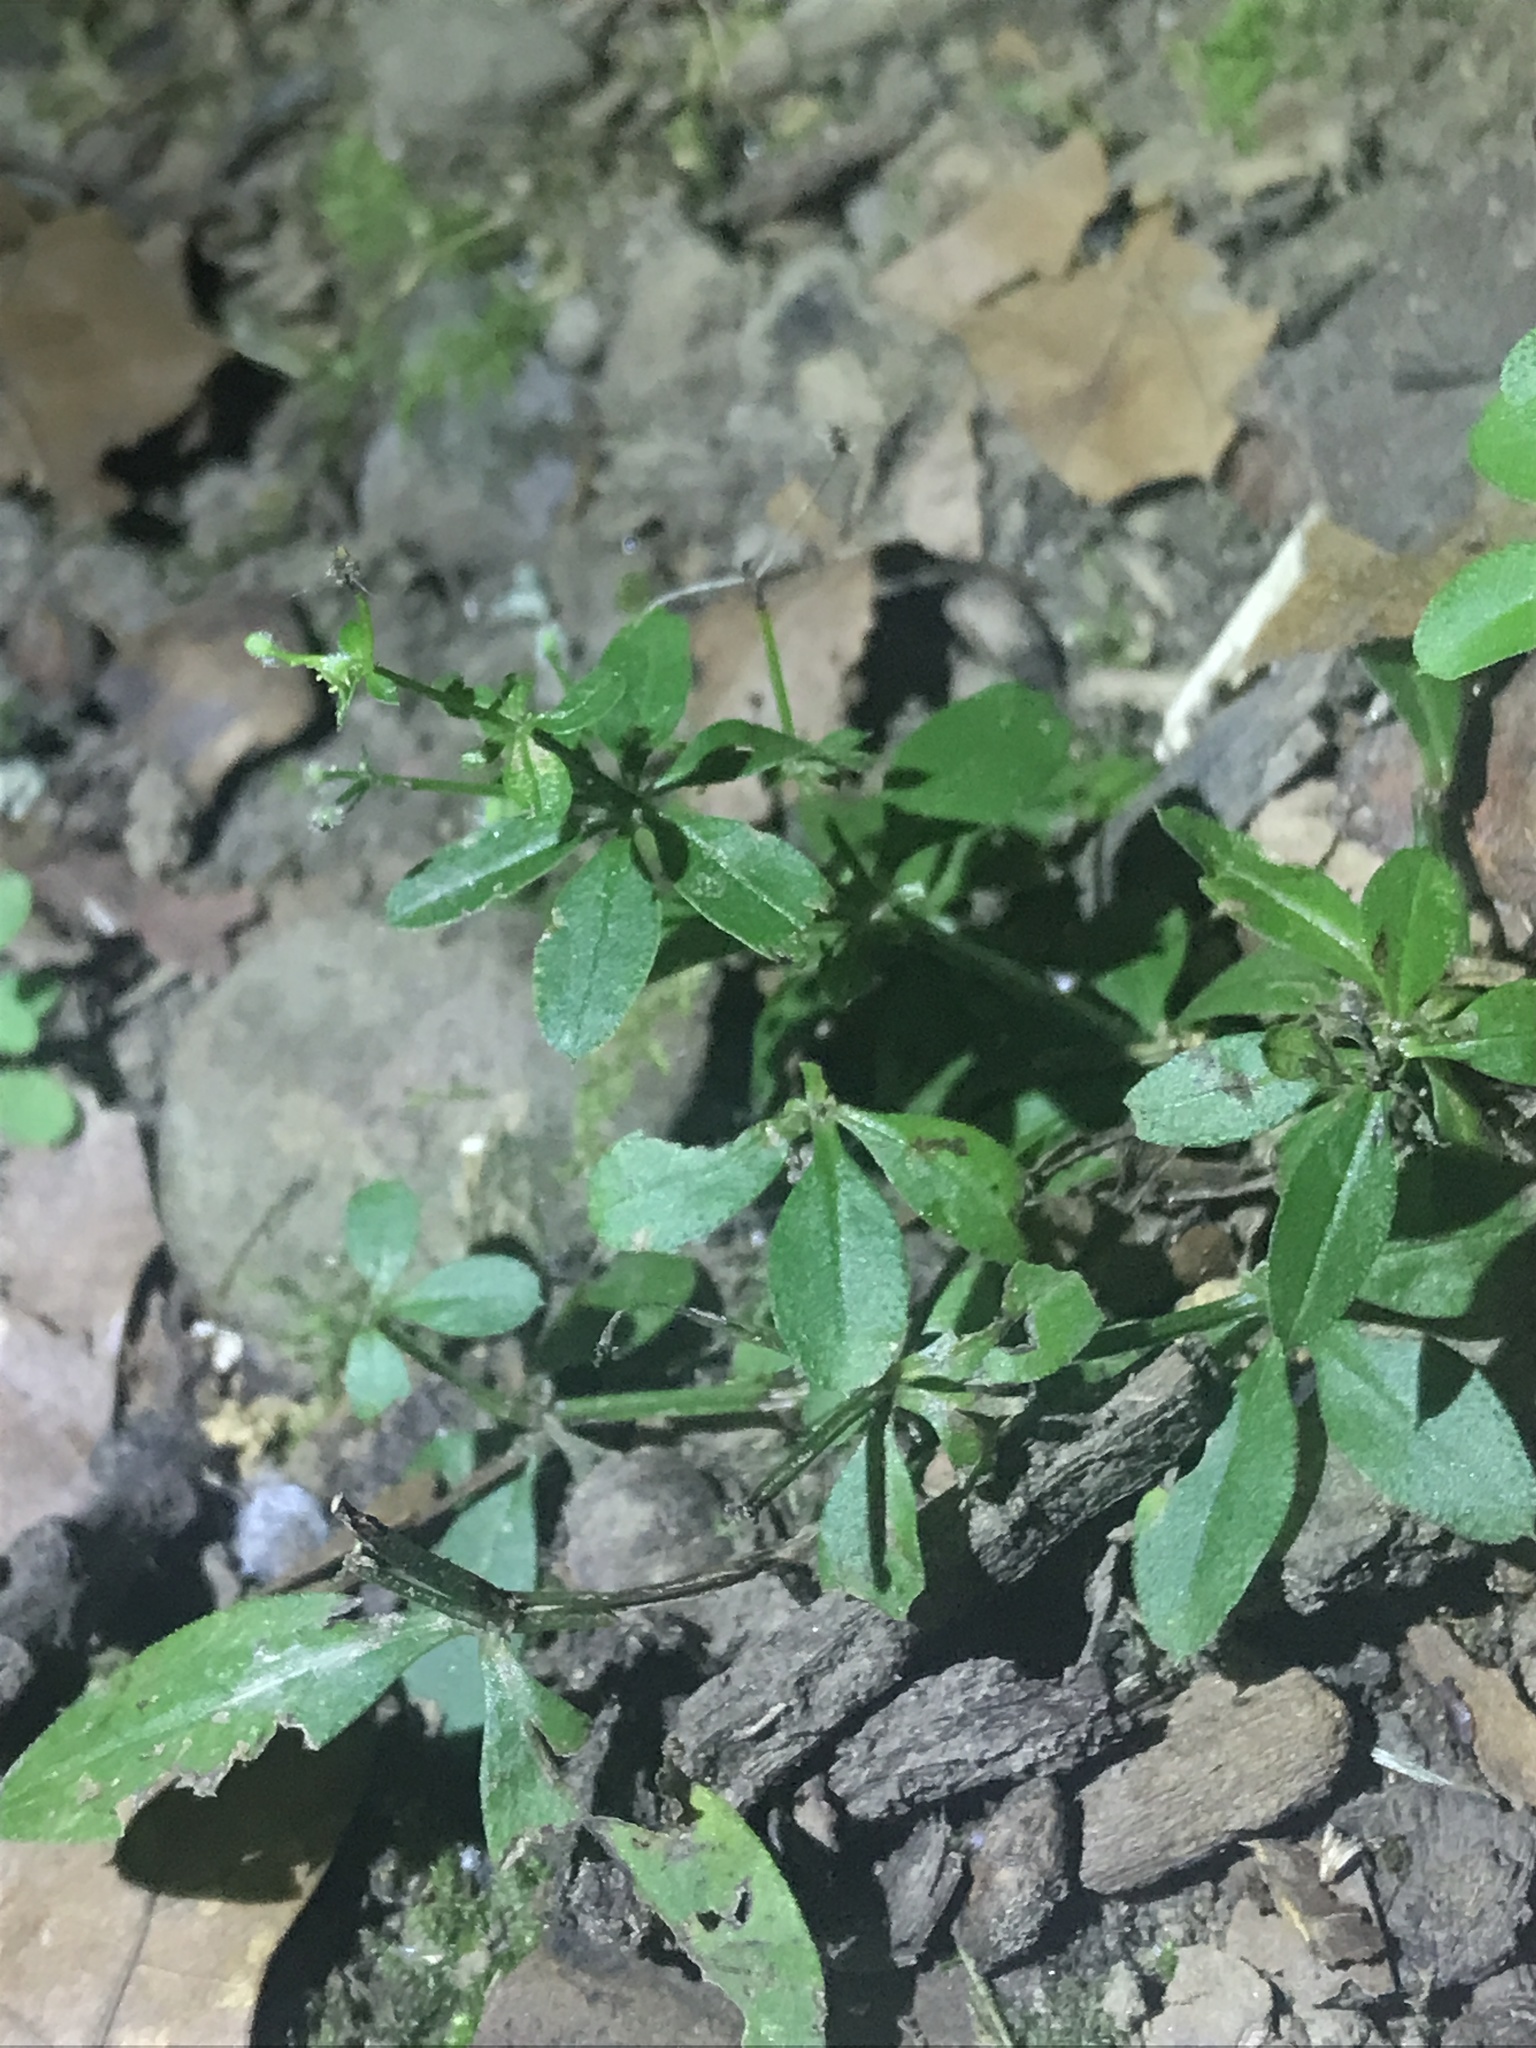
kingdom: Plantae
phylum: Tracheophyta
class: Magnoliopsida
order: Gentianales
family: Rubiaceae
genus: Galium
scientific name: Galium triflorum
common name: Fragrant bedstraw
